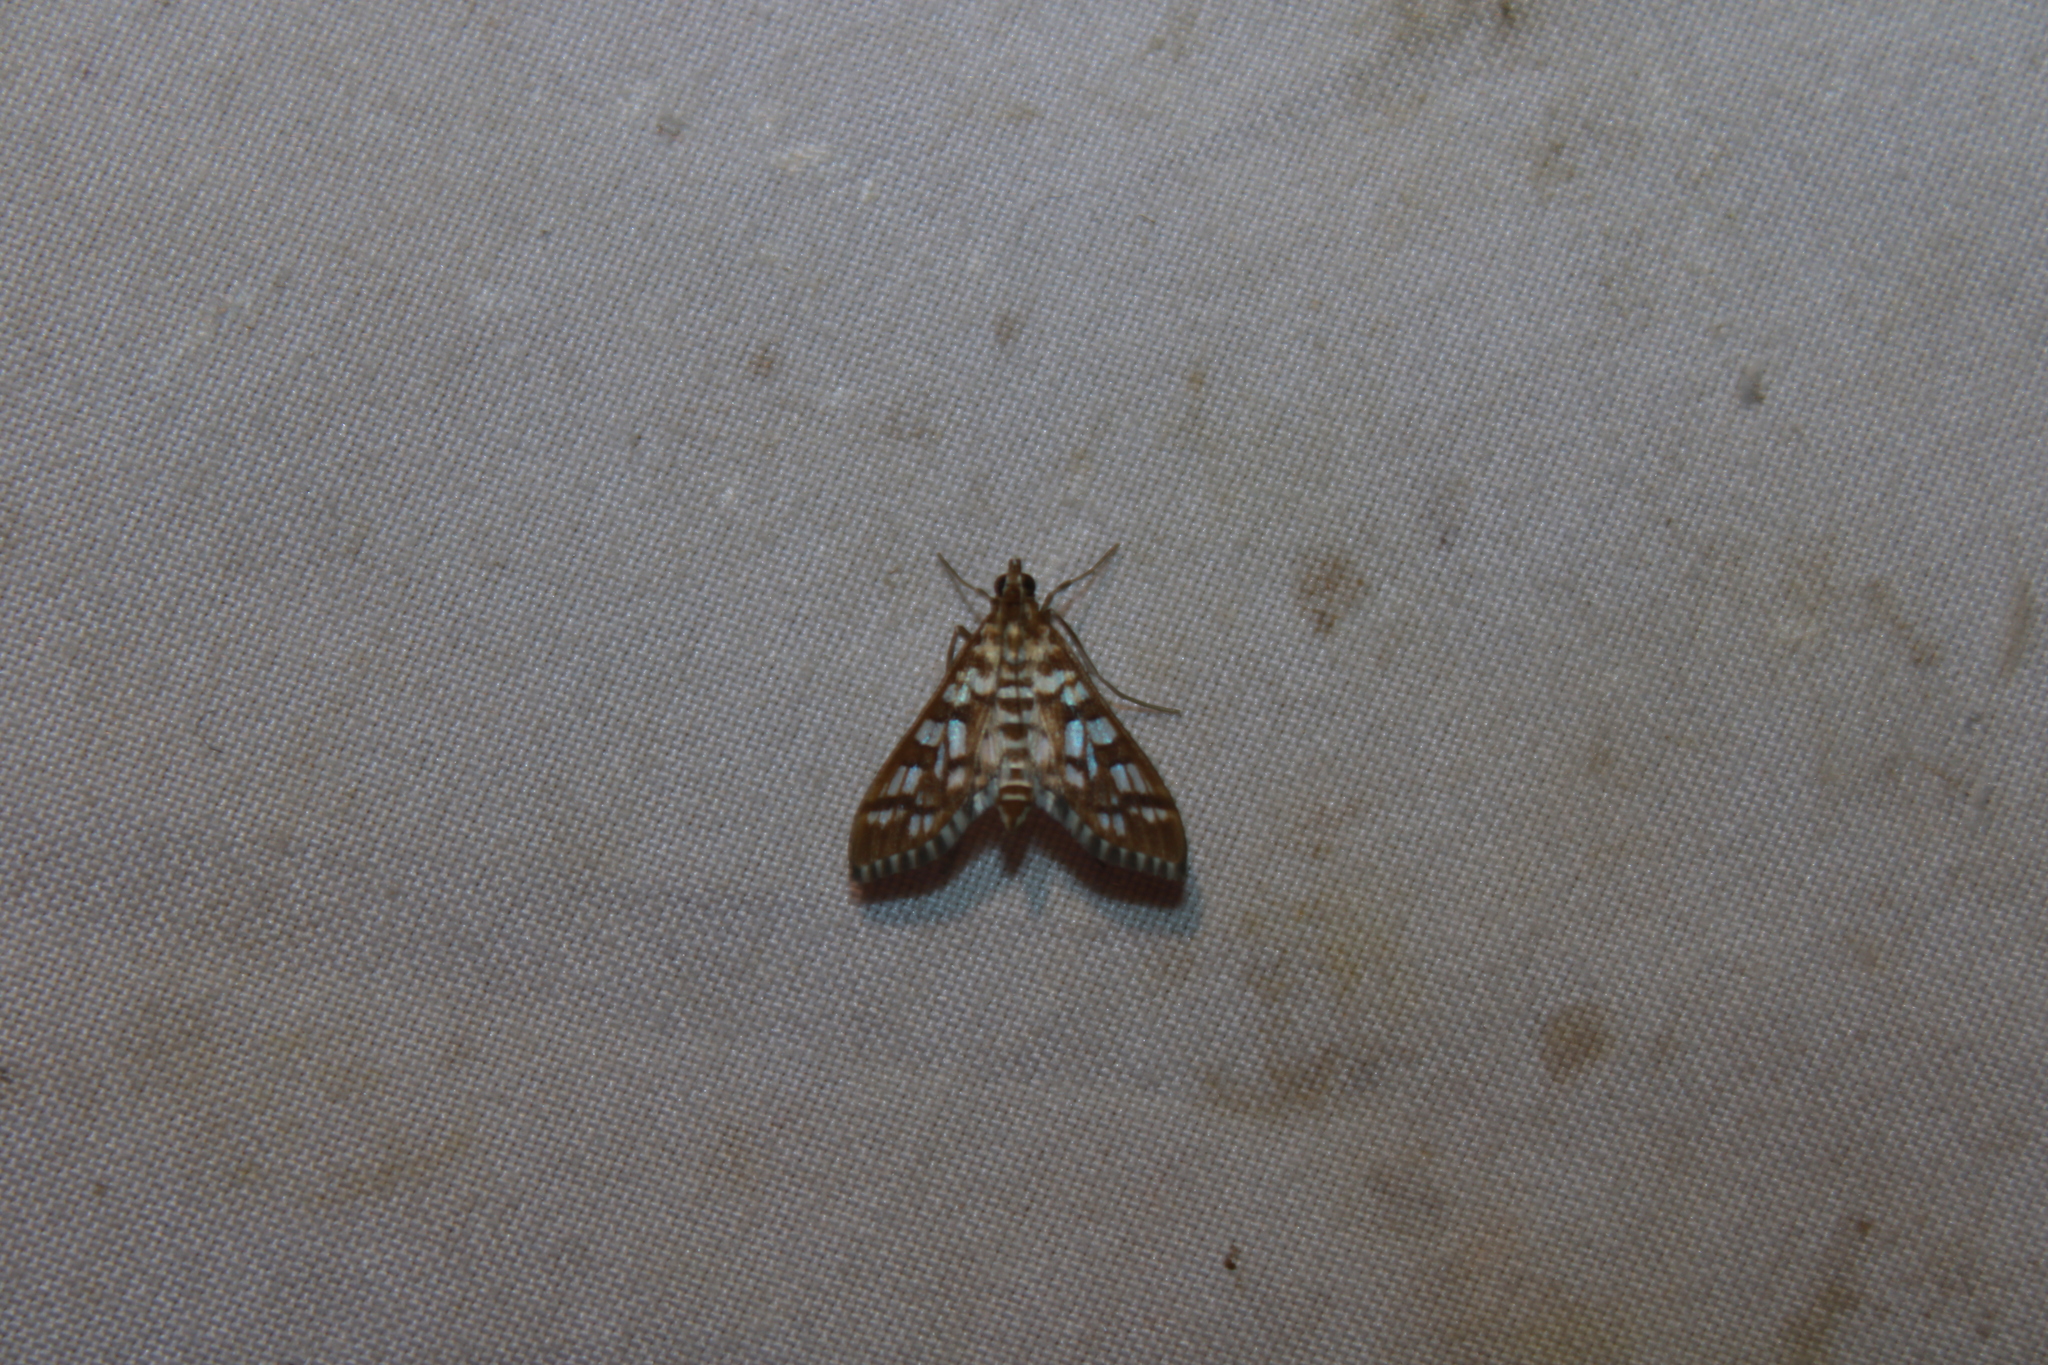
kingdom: Animalia
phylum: Arthropoda
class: Insecta
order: Lepidoptera
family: Crambidae
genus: Epipagis
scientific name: Epipagis fenestralis
